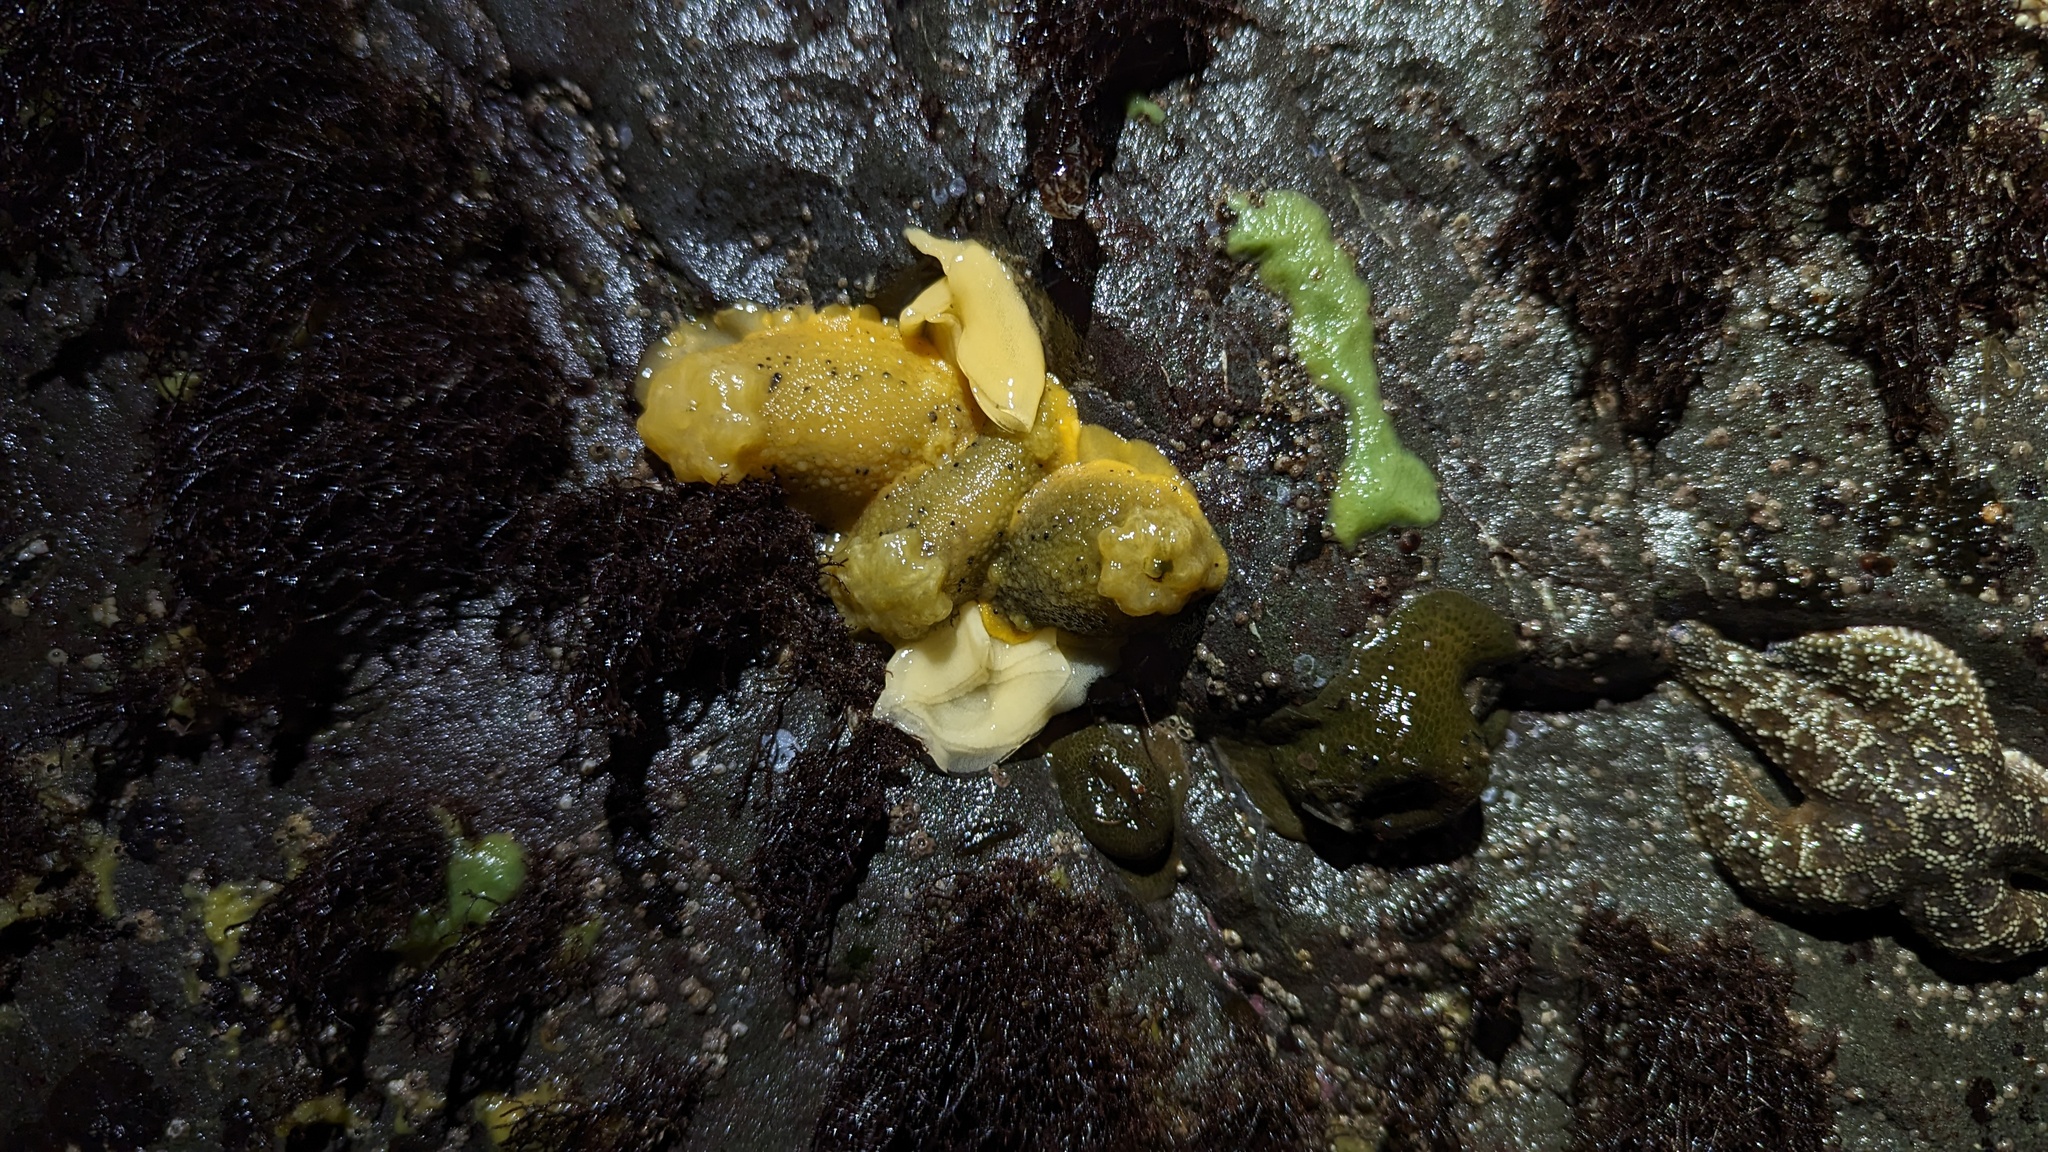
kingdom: Animalia
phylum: Mollusca
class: Gastropoda
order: Nudibranchia
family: Dorididae
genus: Doris
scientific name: Doris montereyensis
